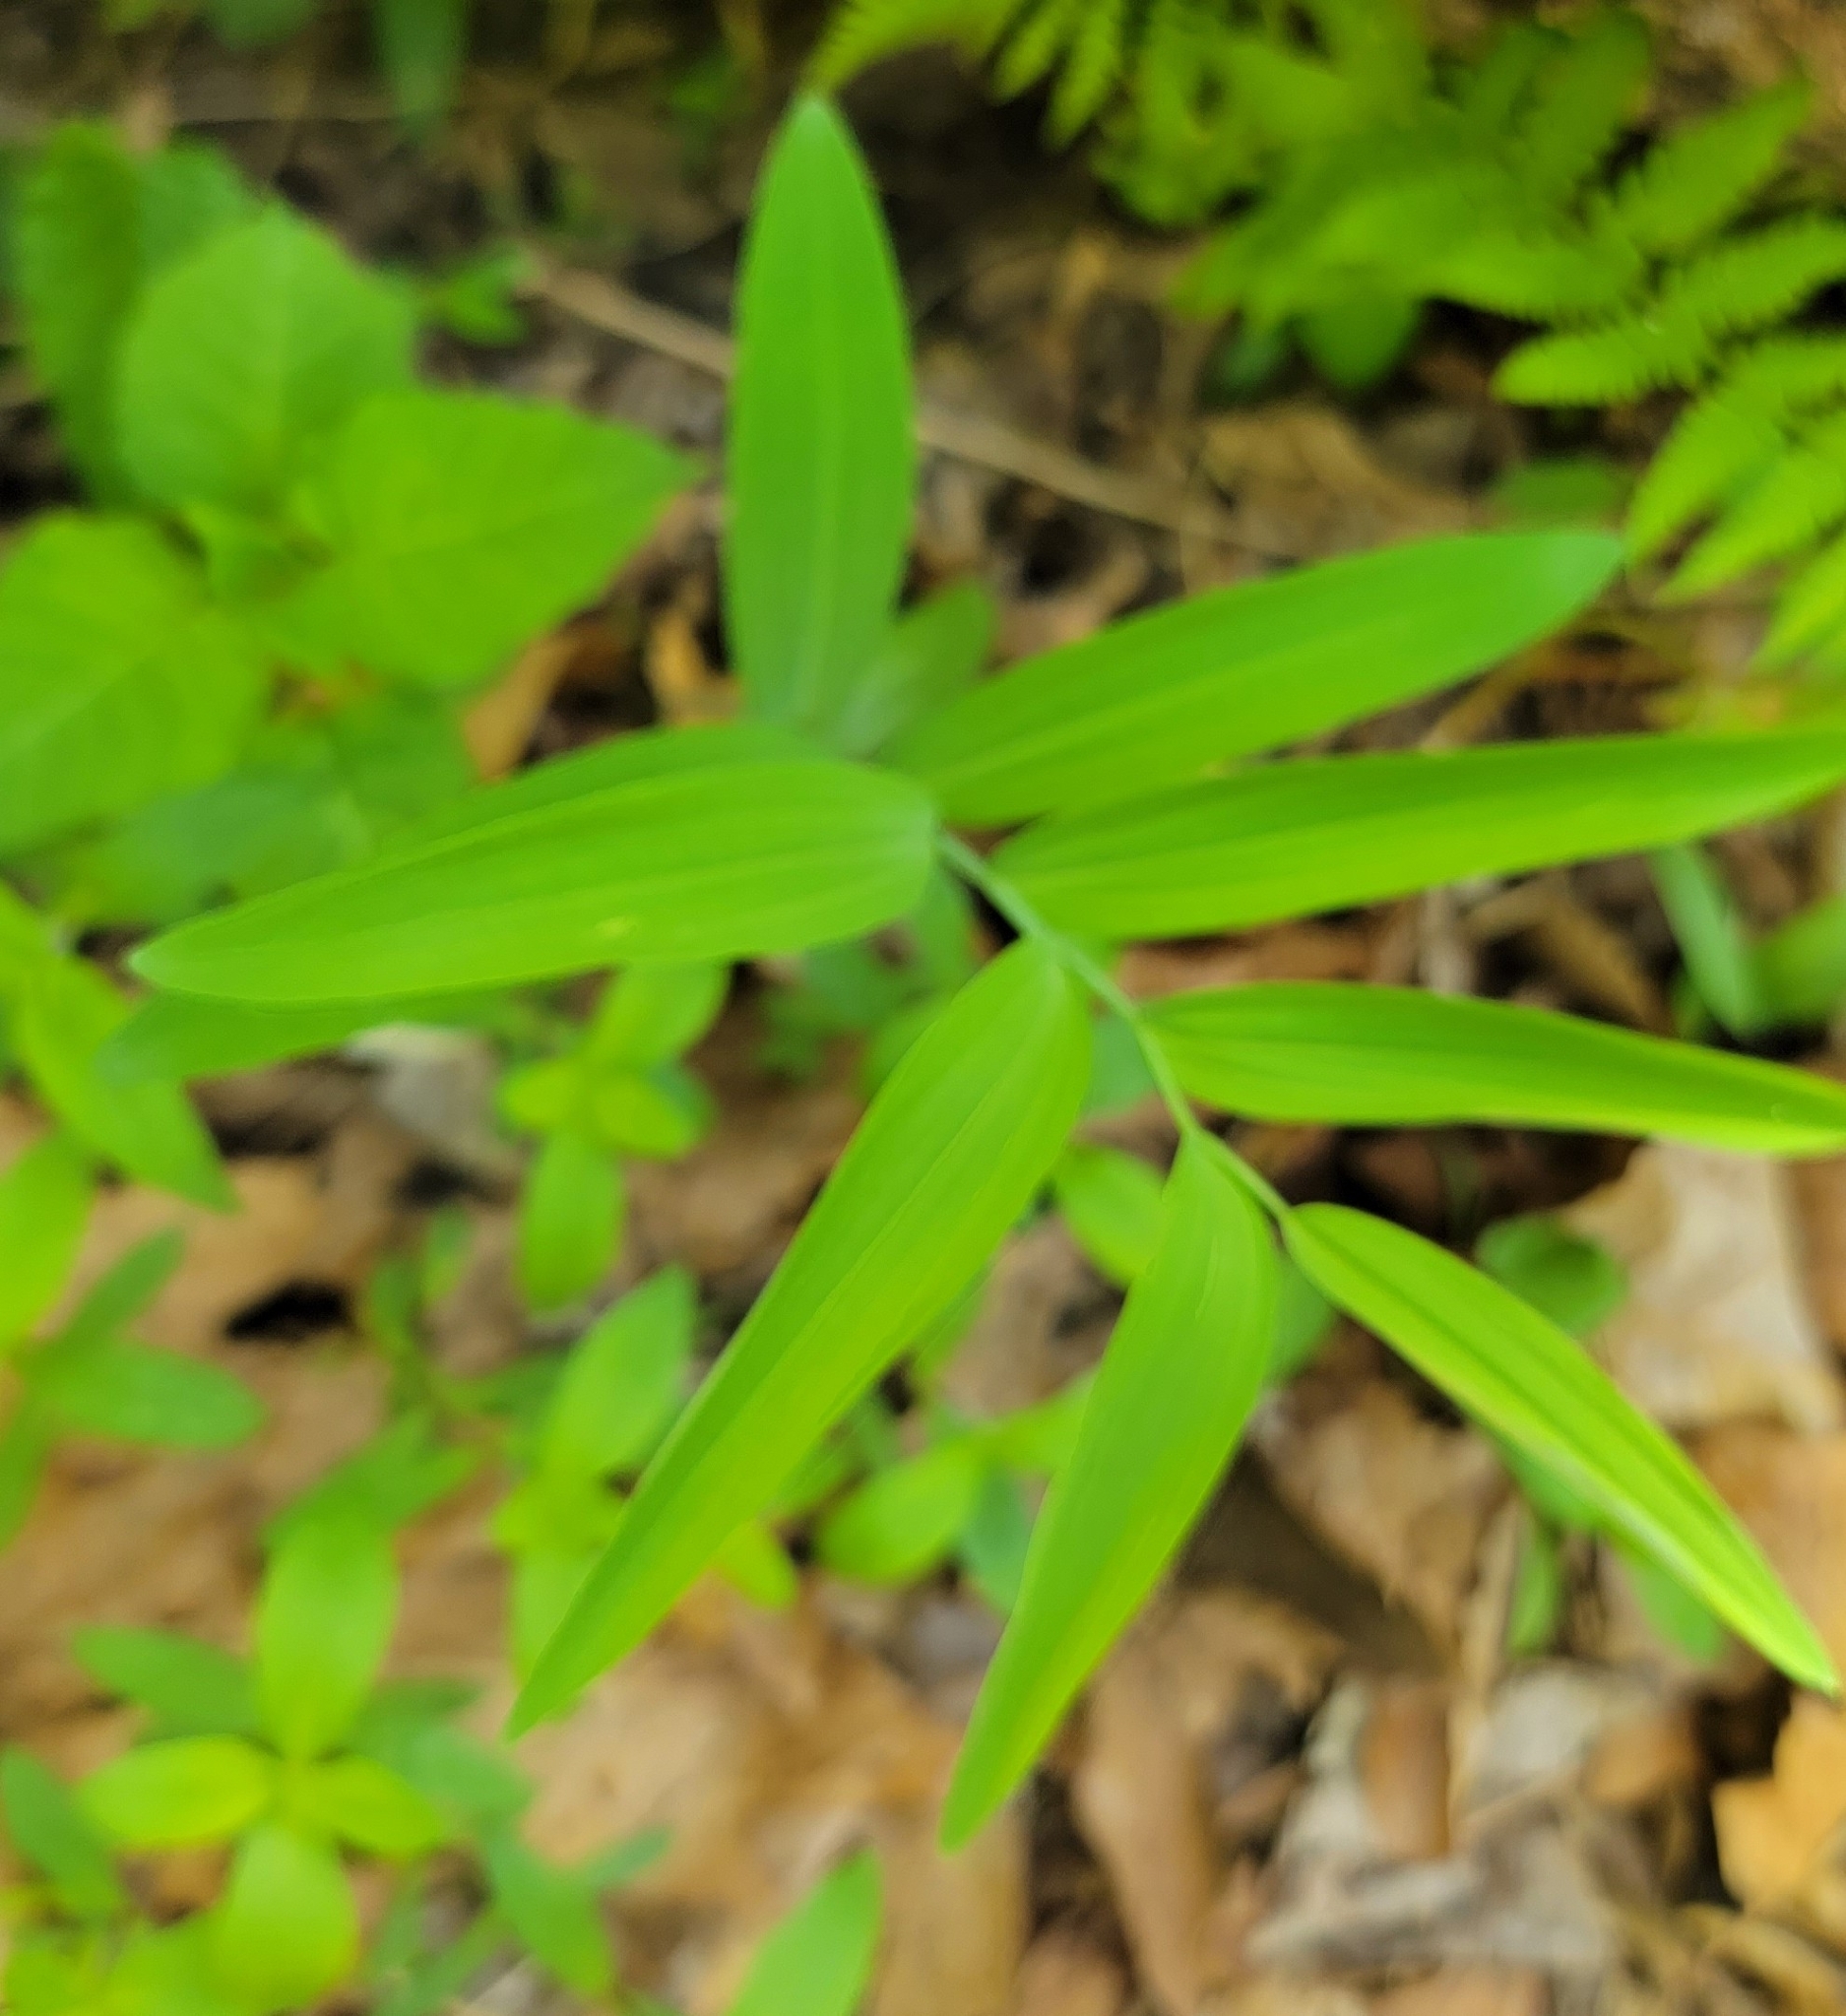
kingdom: Plantae
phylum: Tracheophyta
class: Liliopsida
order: Asparagales
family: Asparagaceae
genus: Polygonatum
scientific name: Polygonatum biflorum
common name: American solomon's-seal
